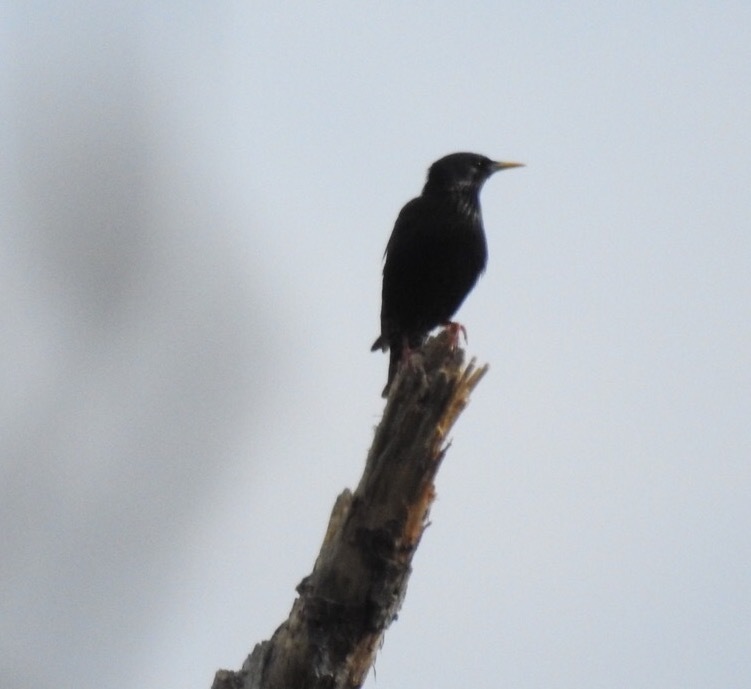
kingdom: Animalia
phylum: Chordata
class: Aves
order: Passeriformes
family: Sturnidae
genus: Sturnus
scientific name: Sturnus vulgaris
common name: Common starling
